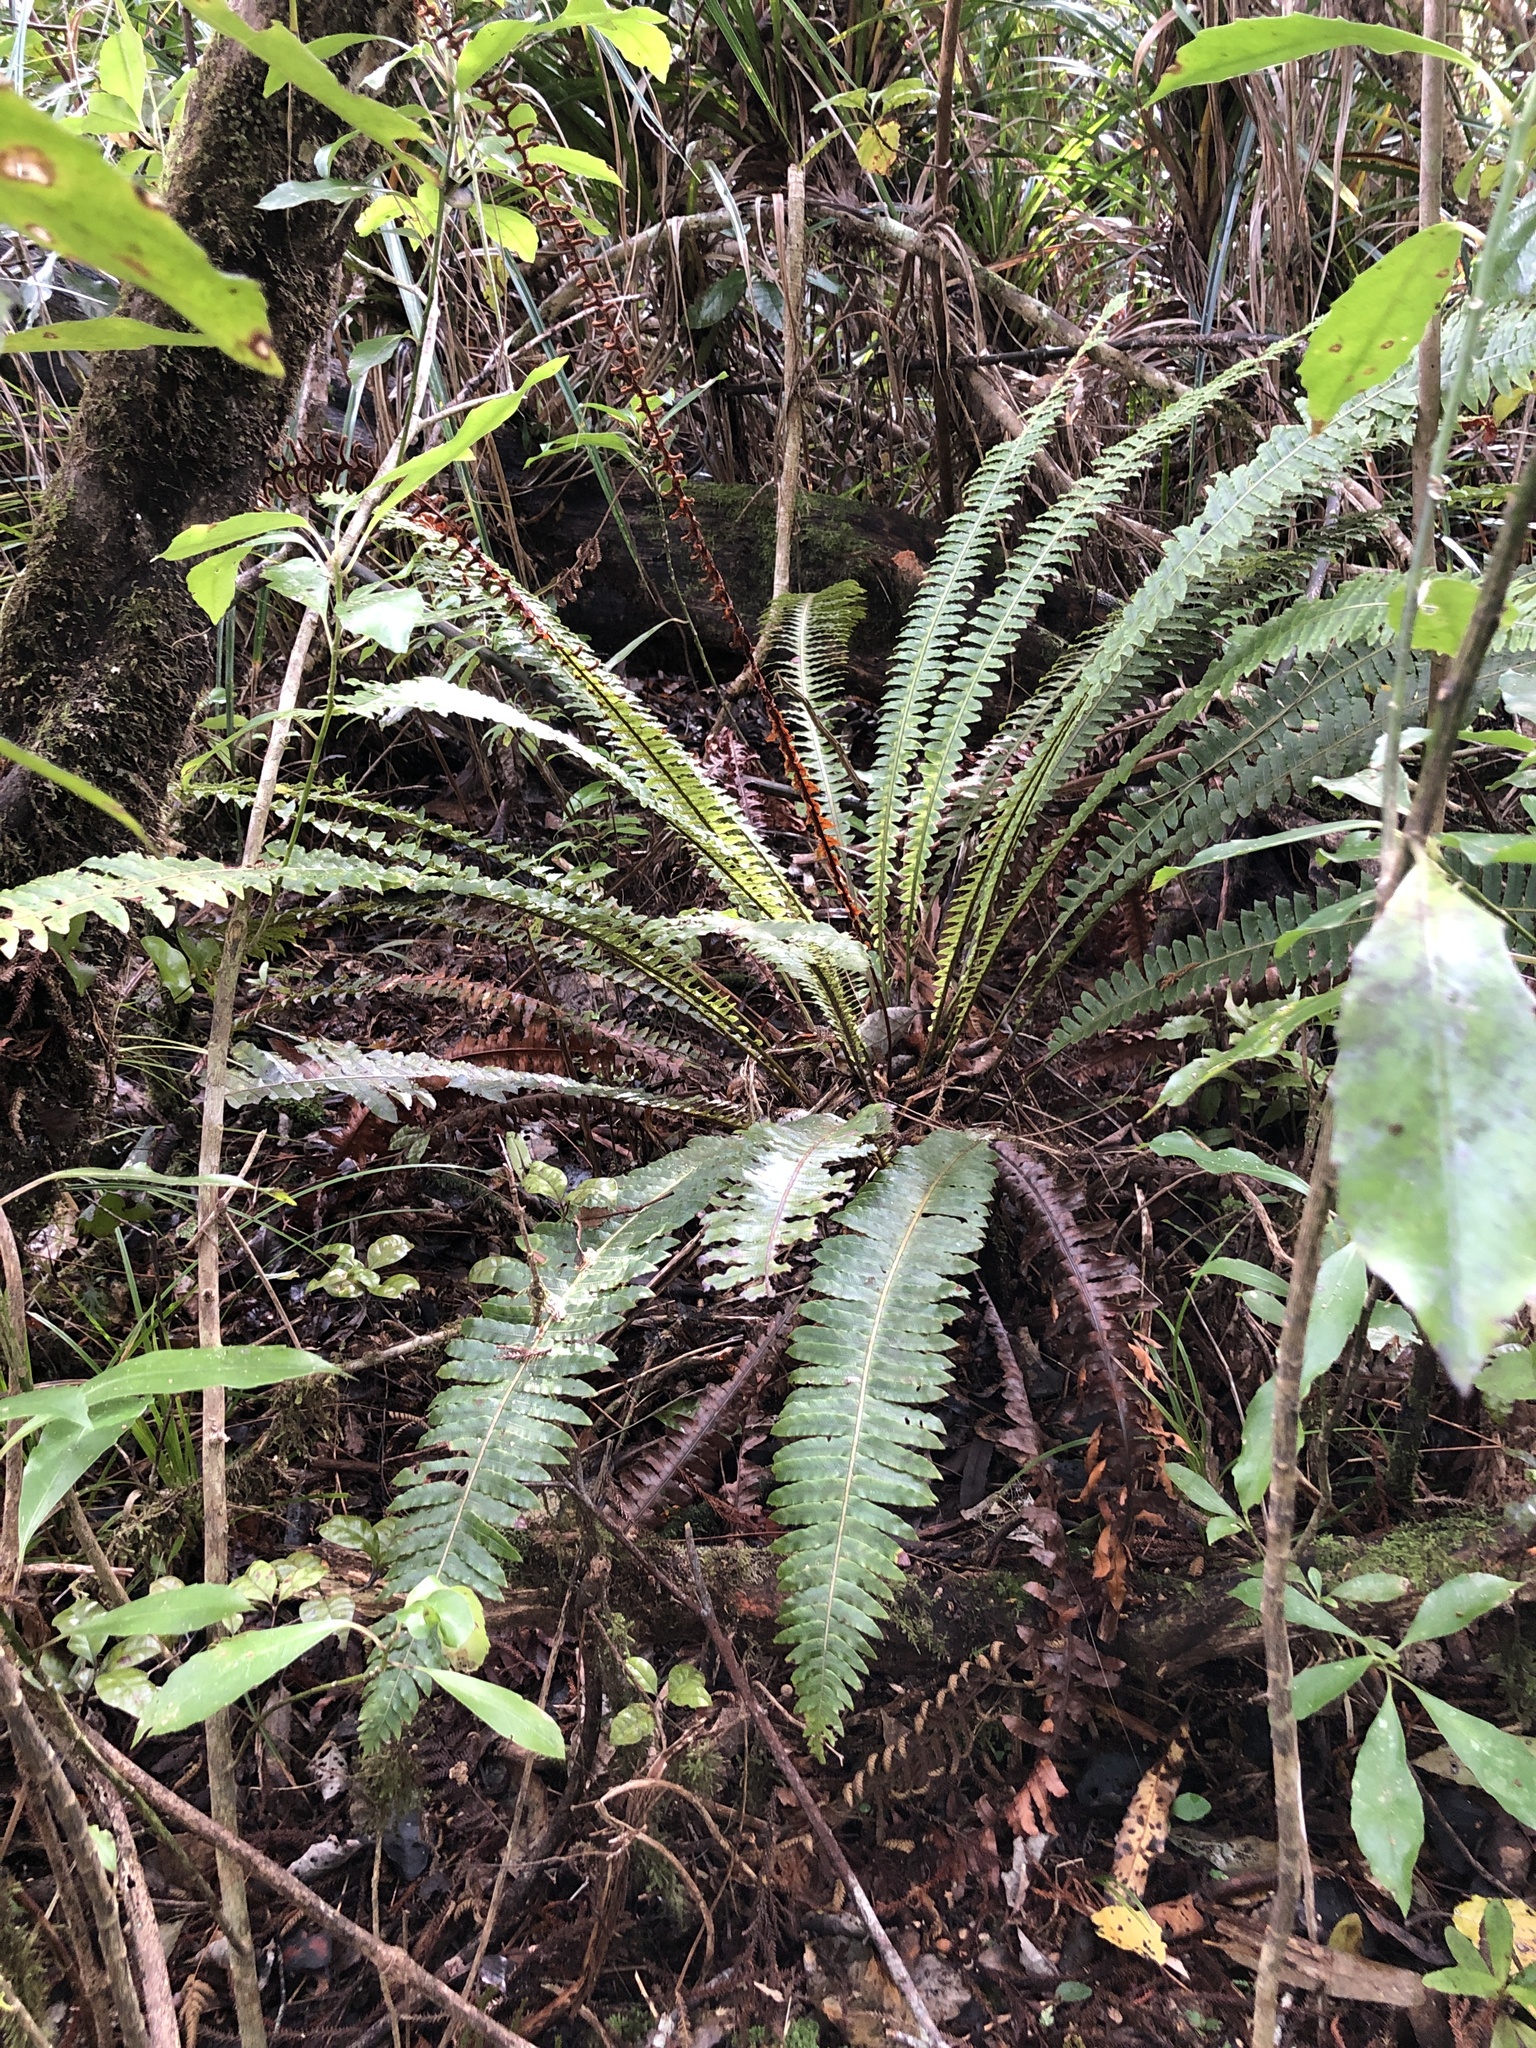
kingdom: Plantae
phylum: Tracheophyta
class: Polypodiopsida
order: Polypodiales
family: Blechnaceae
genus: Lomaria
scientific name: Lomaria discolor
